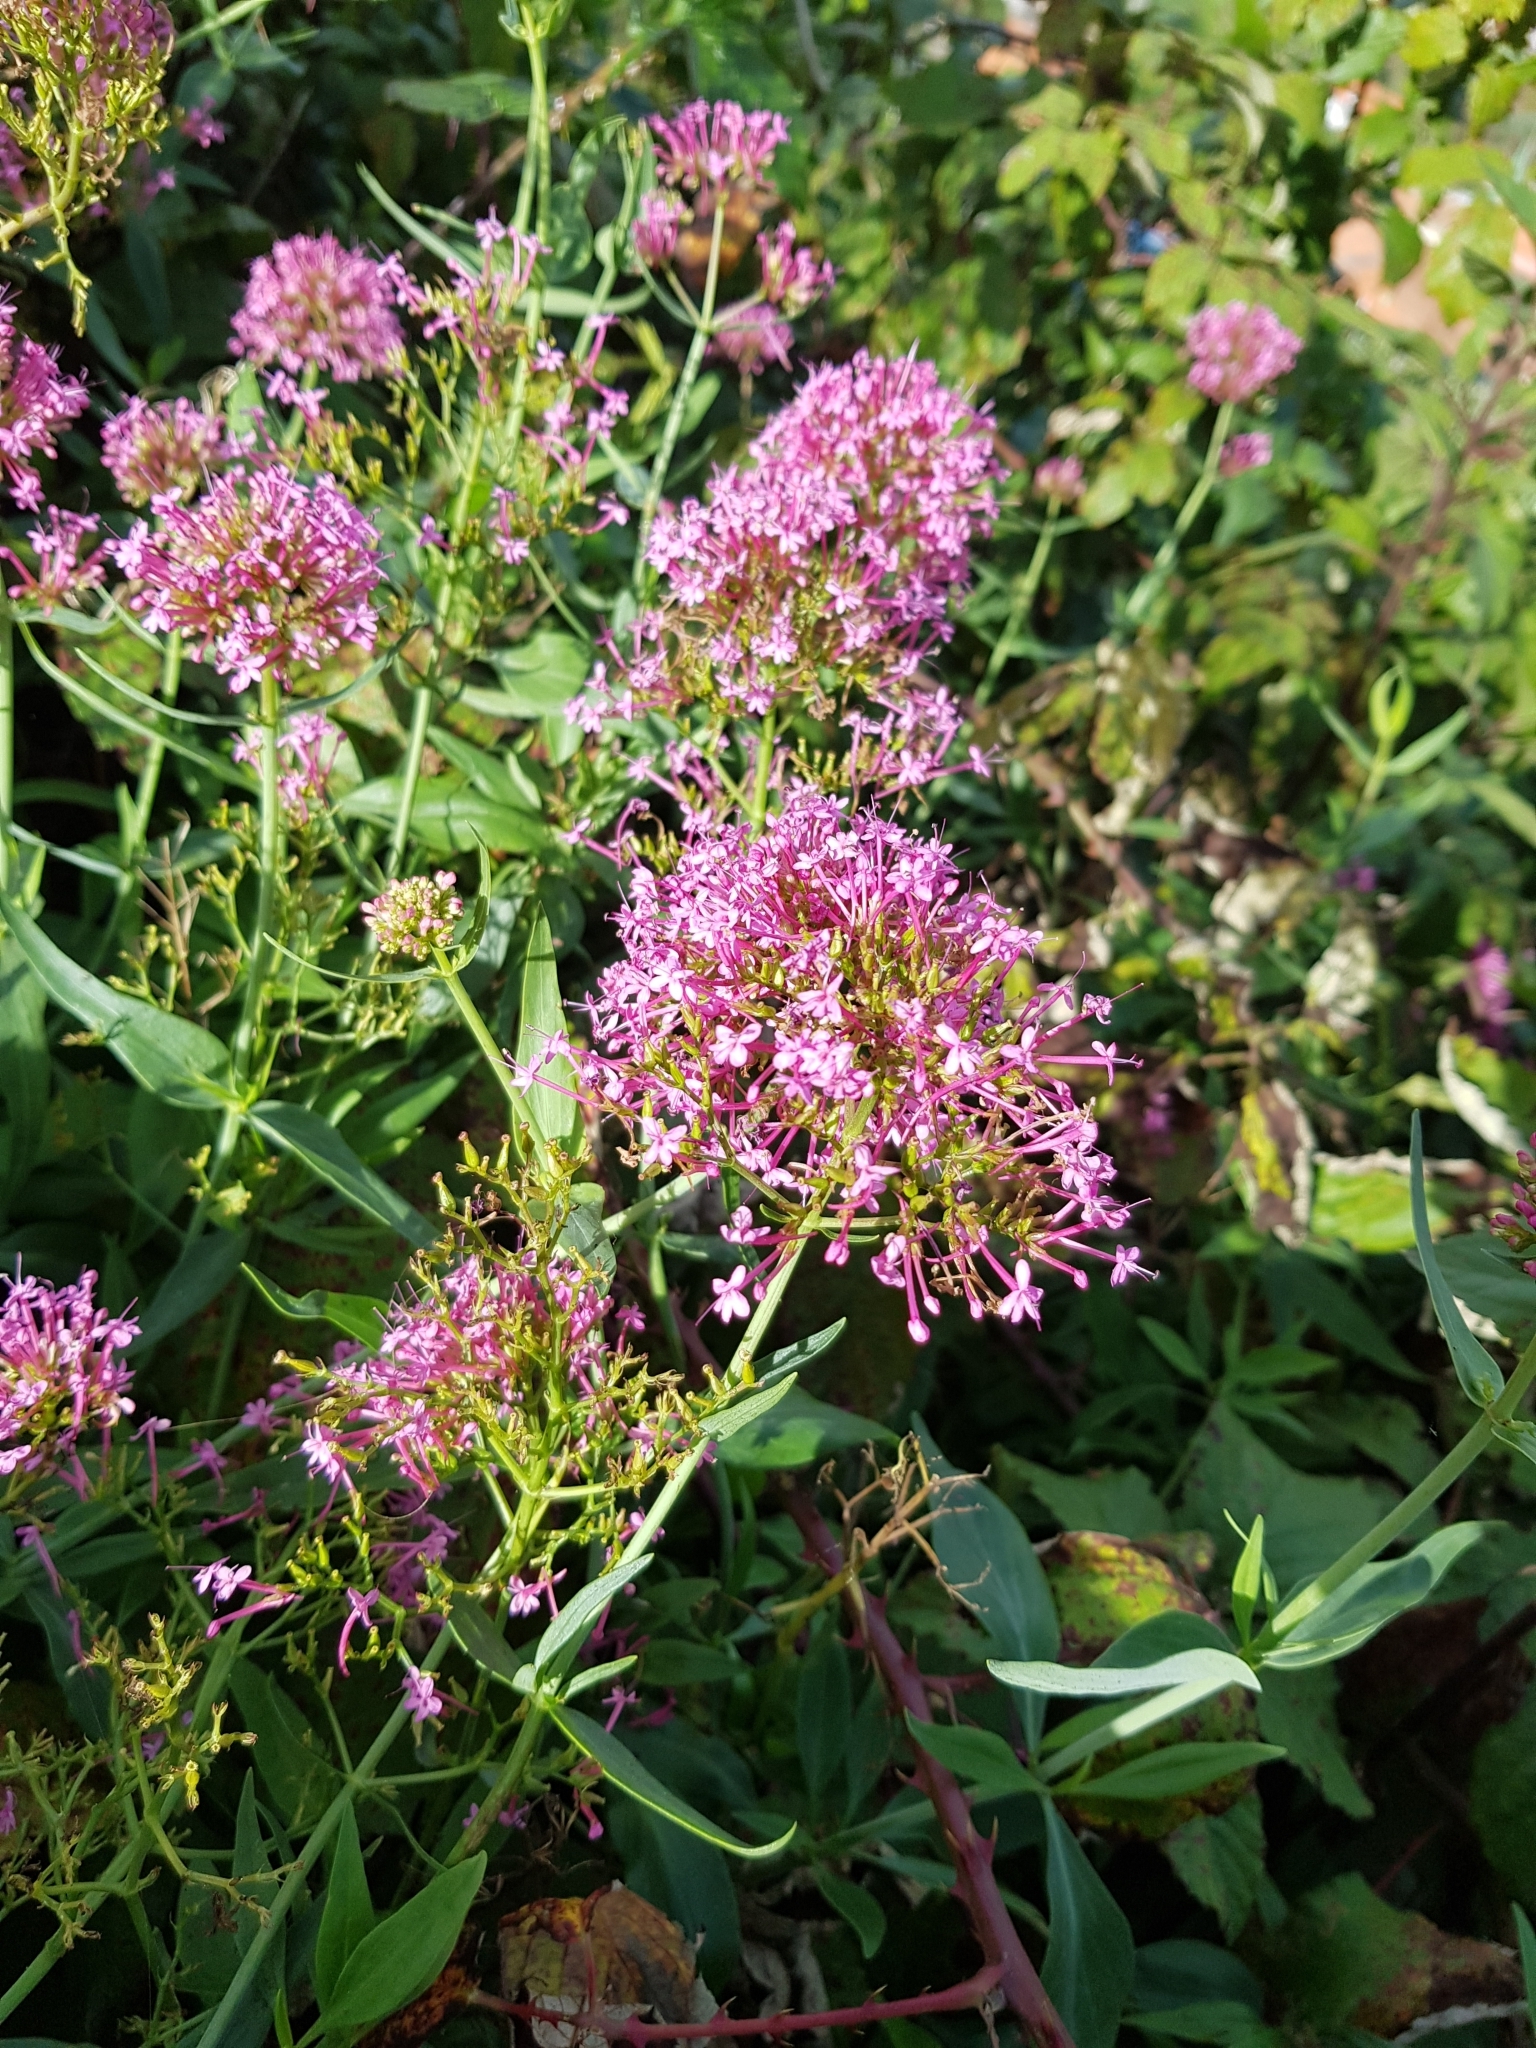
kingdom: Plantae
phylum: Tracheophyta
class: Magnoliopsida
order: Dipsacales
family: Caprifoliaceae
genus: Centranthus
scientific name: Centranthus ruber
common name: Red valerian
